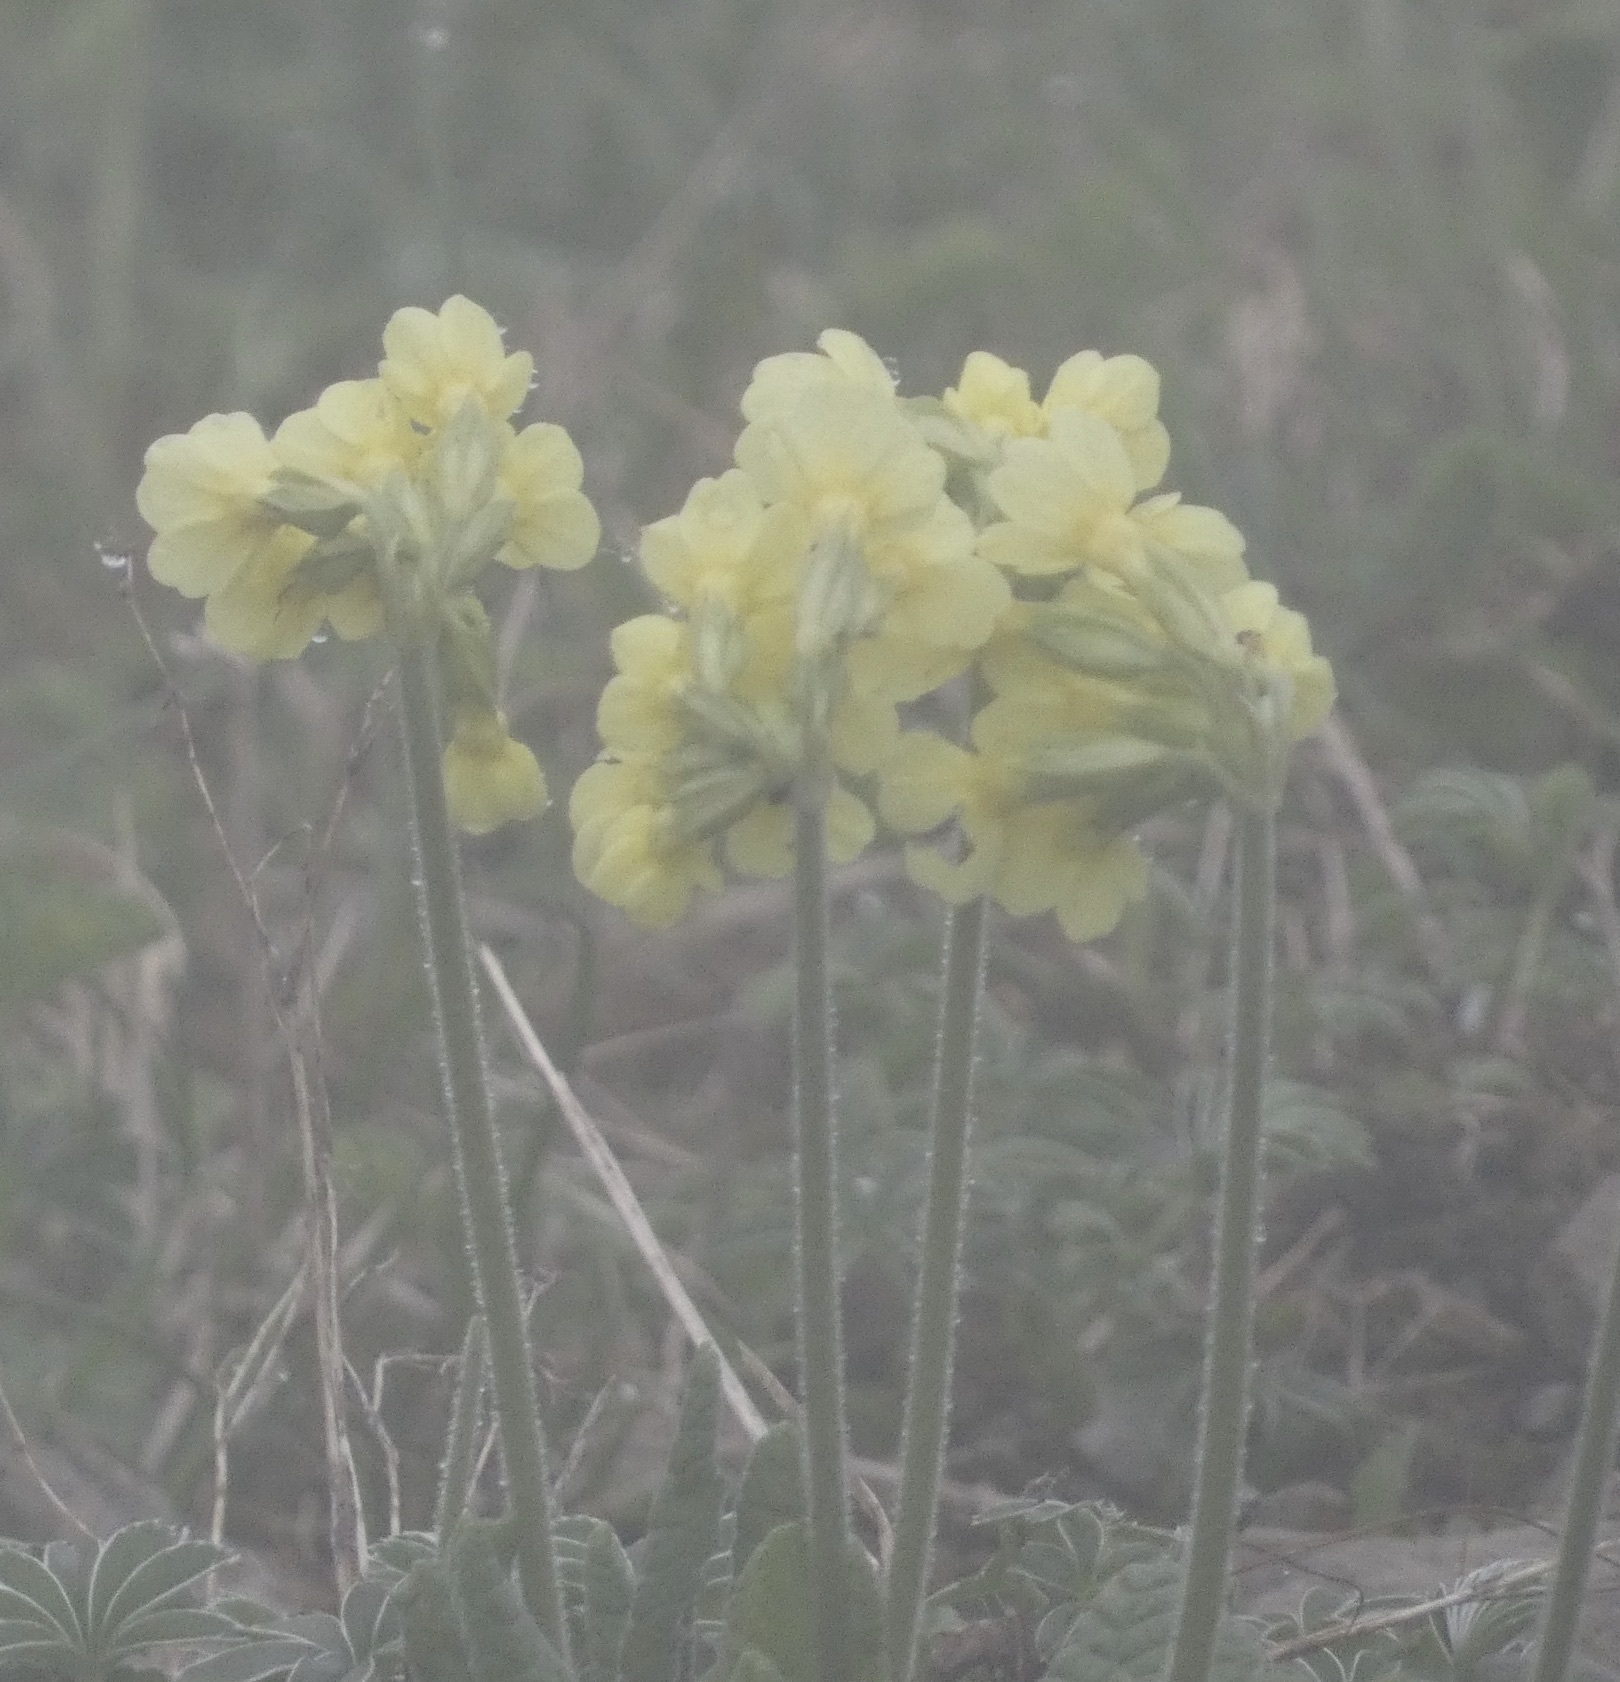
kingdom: Plantae
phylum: Tracheophyta
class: Magnoliopsida
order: Ericales
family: Primulaceae
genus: Primula
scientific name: Primula elatior
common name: Oxlip
